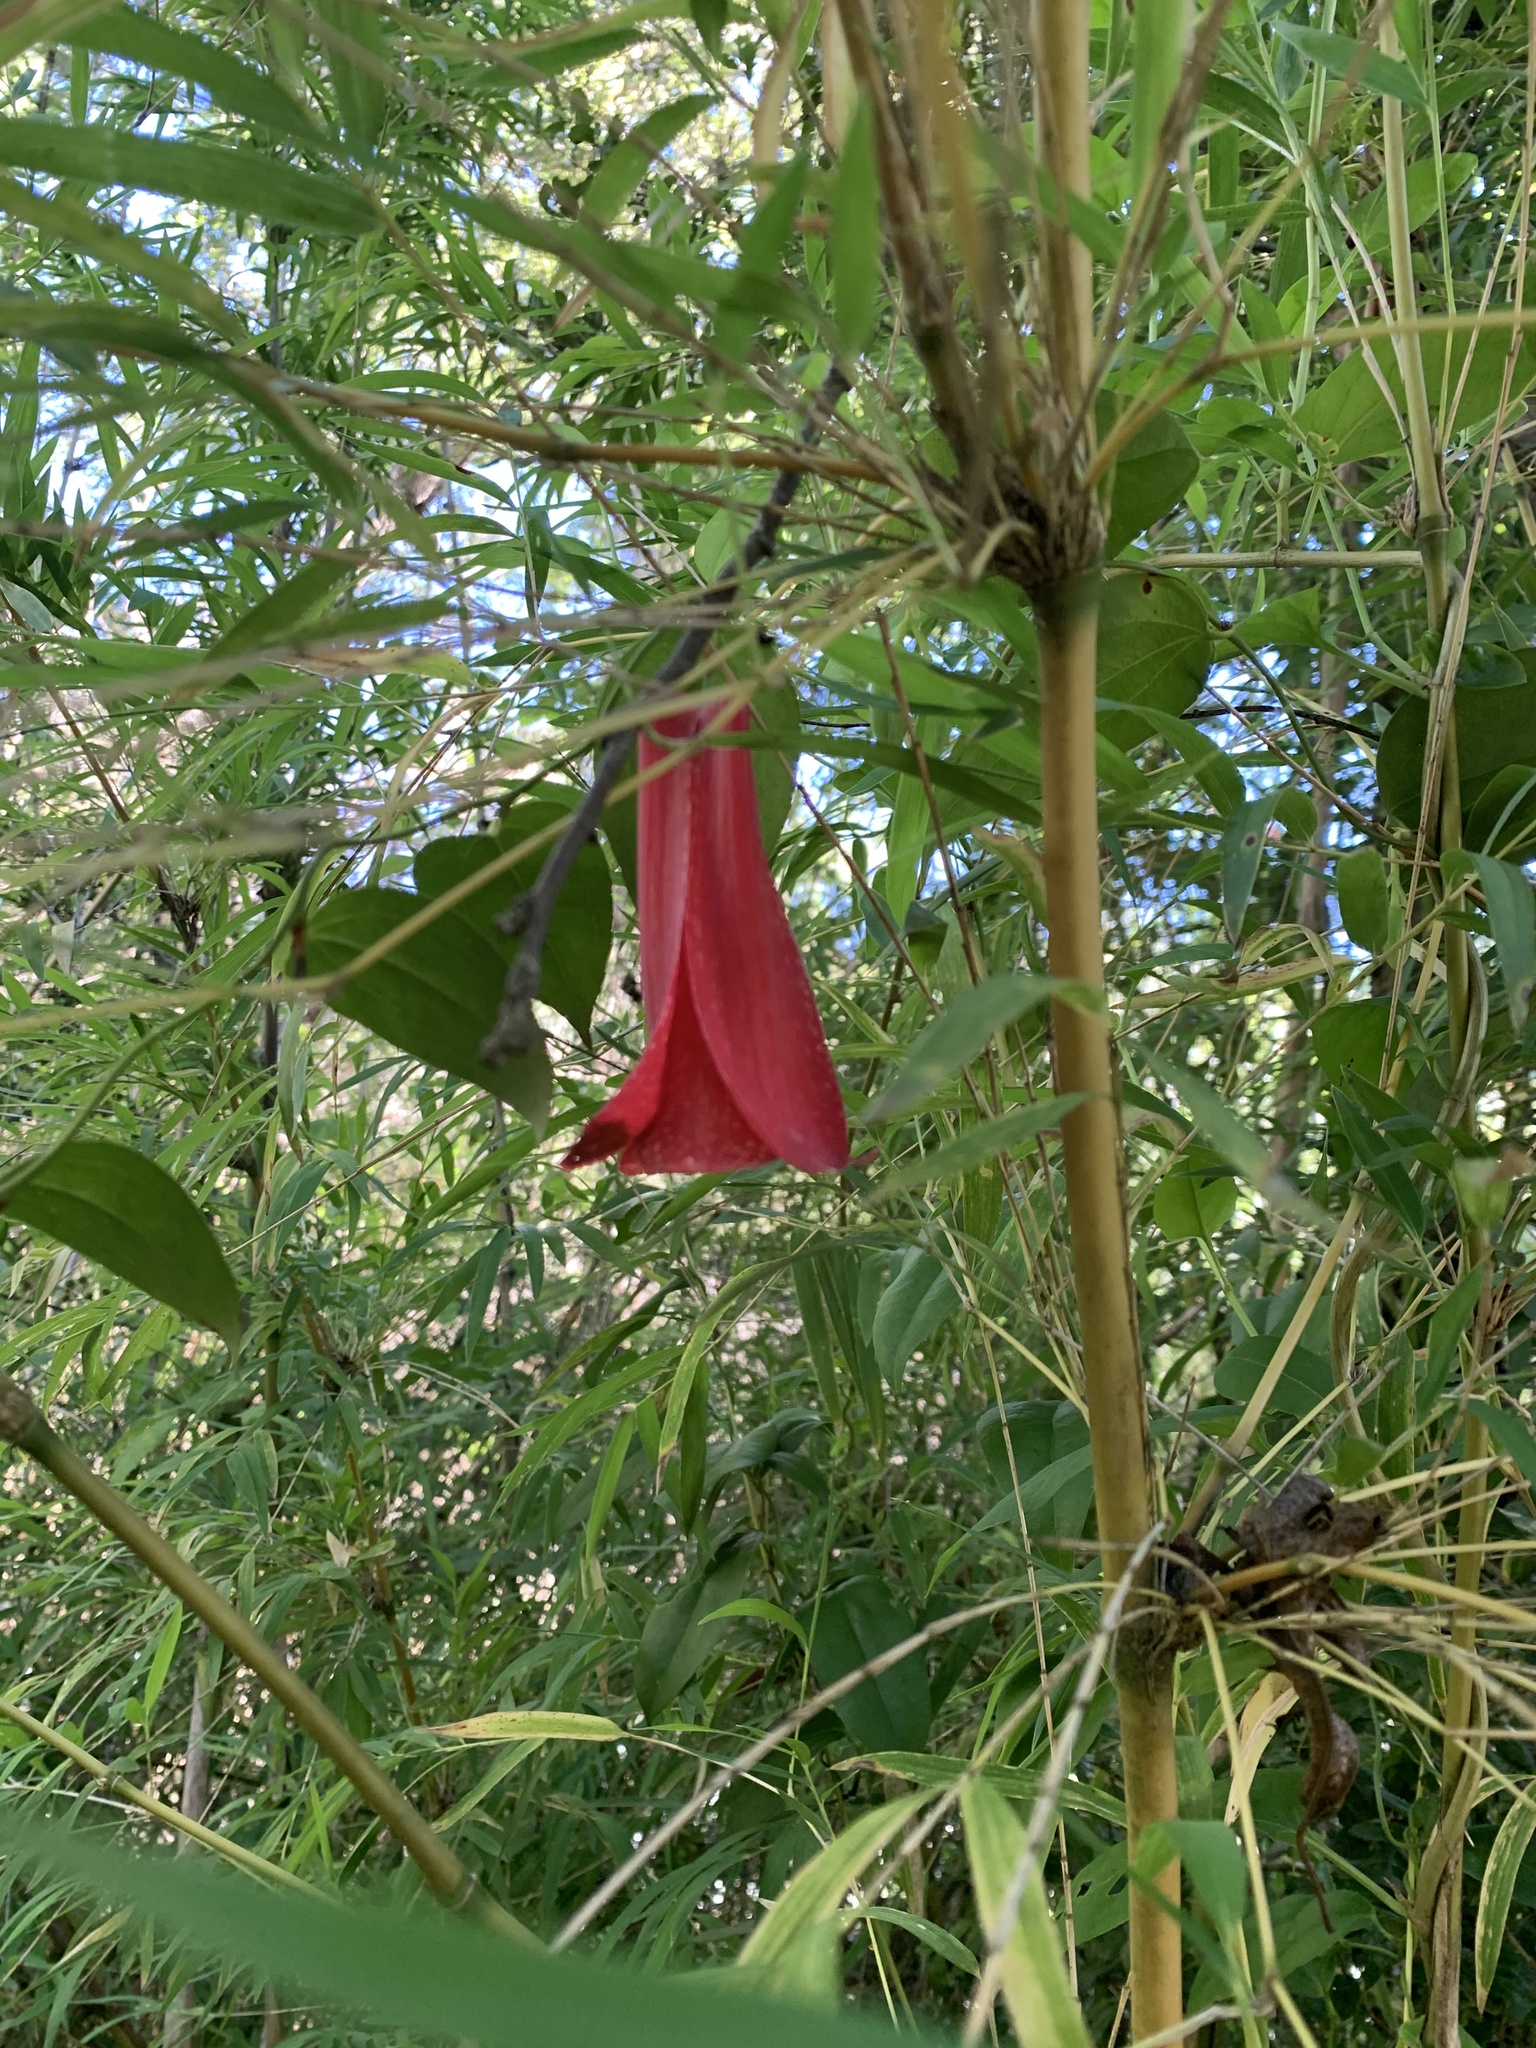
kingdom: Plantae
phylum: Tracheophyta
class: Liliopsida
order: Liliales
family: Philesiaceae
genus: Lapageria
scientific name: Lapageria rosea
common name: Chilean-bellflower
